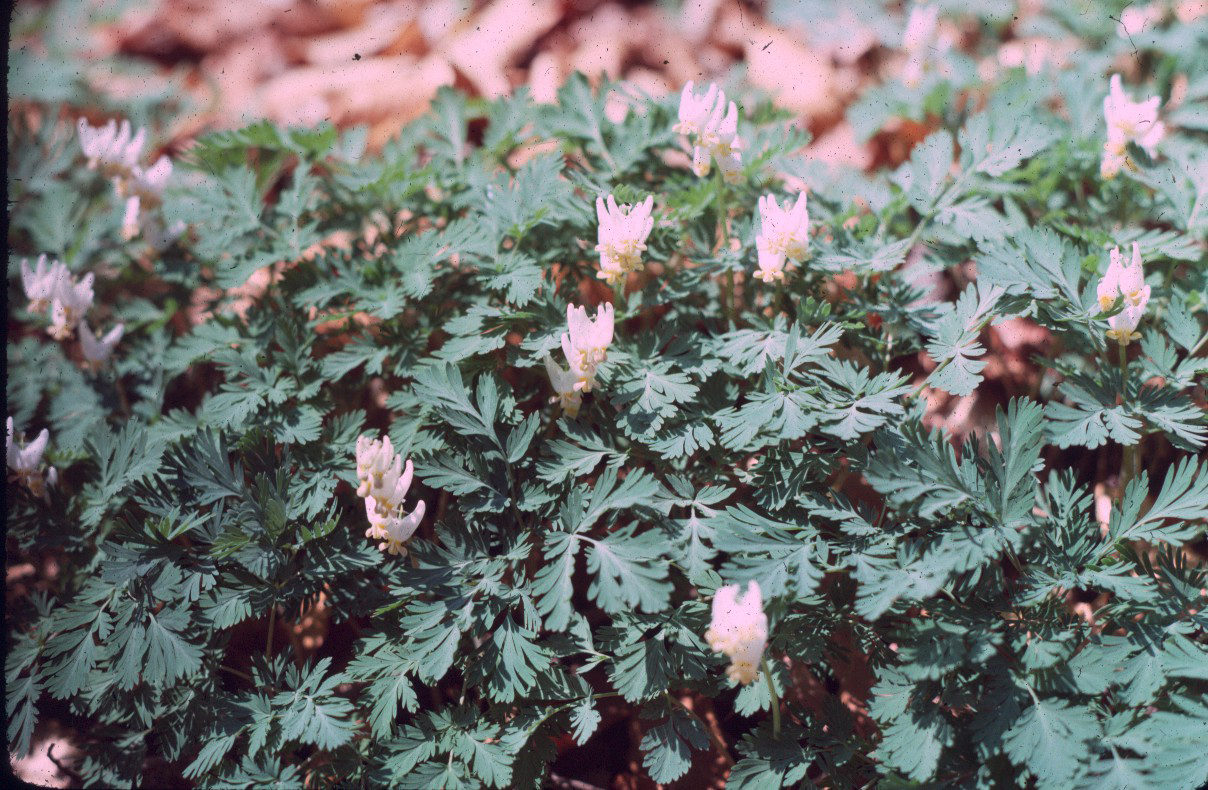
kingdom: Plantae
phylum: Tracheophyta
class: Magnoliopsida
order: Ranunculales
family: Papaveraceae
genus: Dicentra
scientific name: Dicentra cucullaria
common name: Dutchman's breeches
